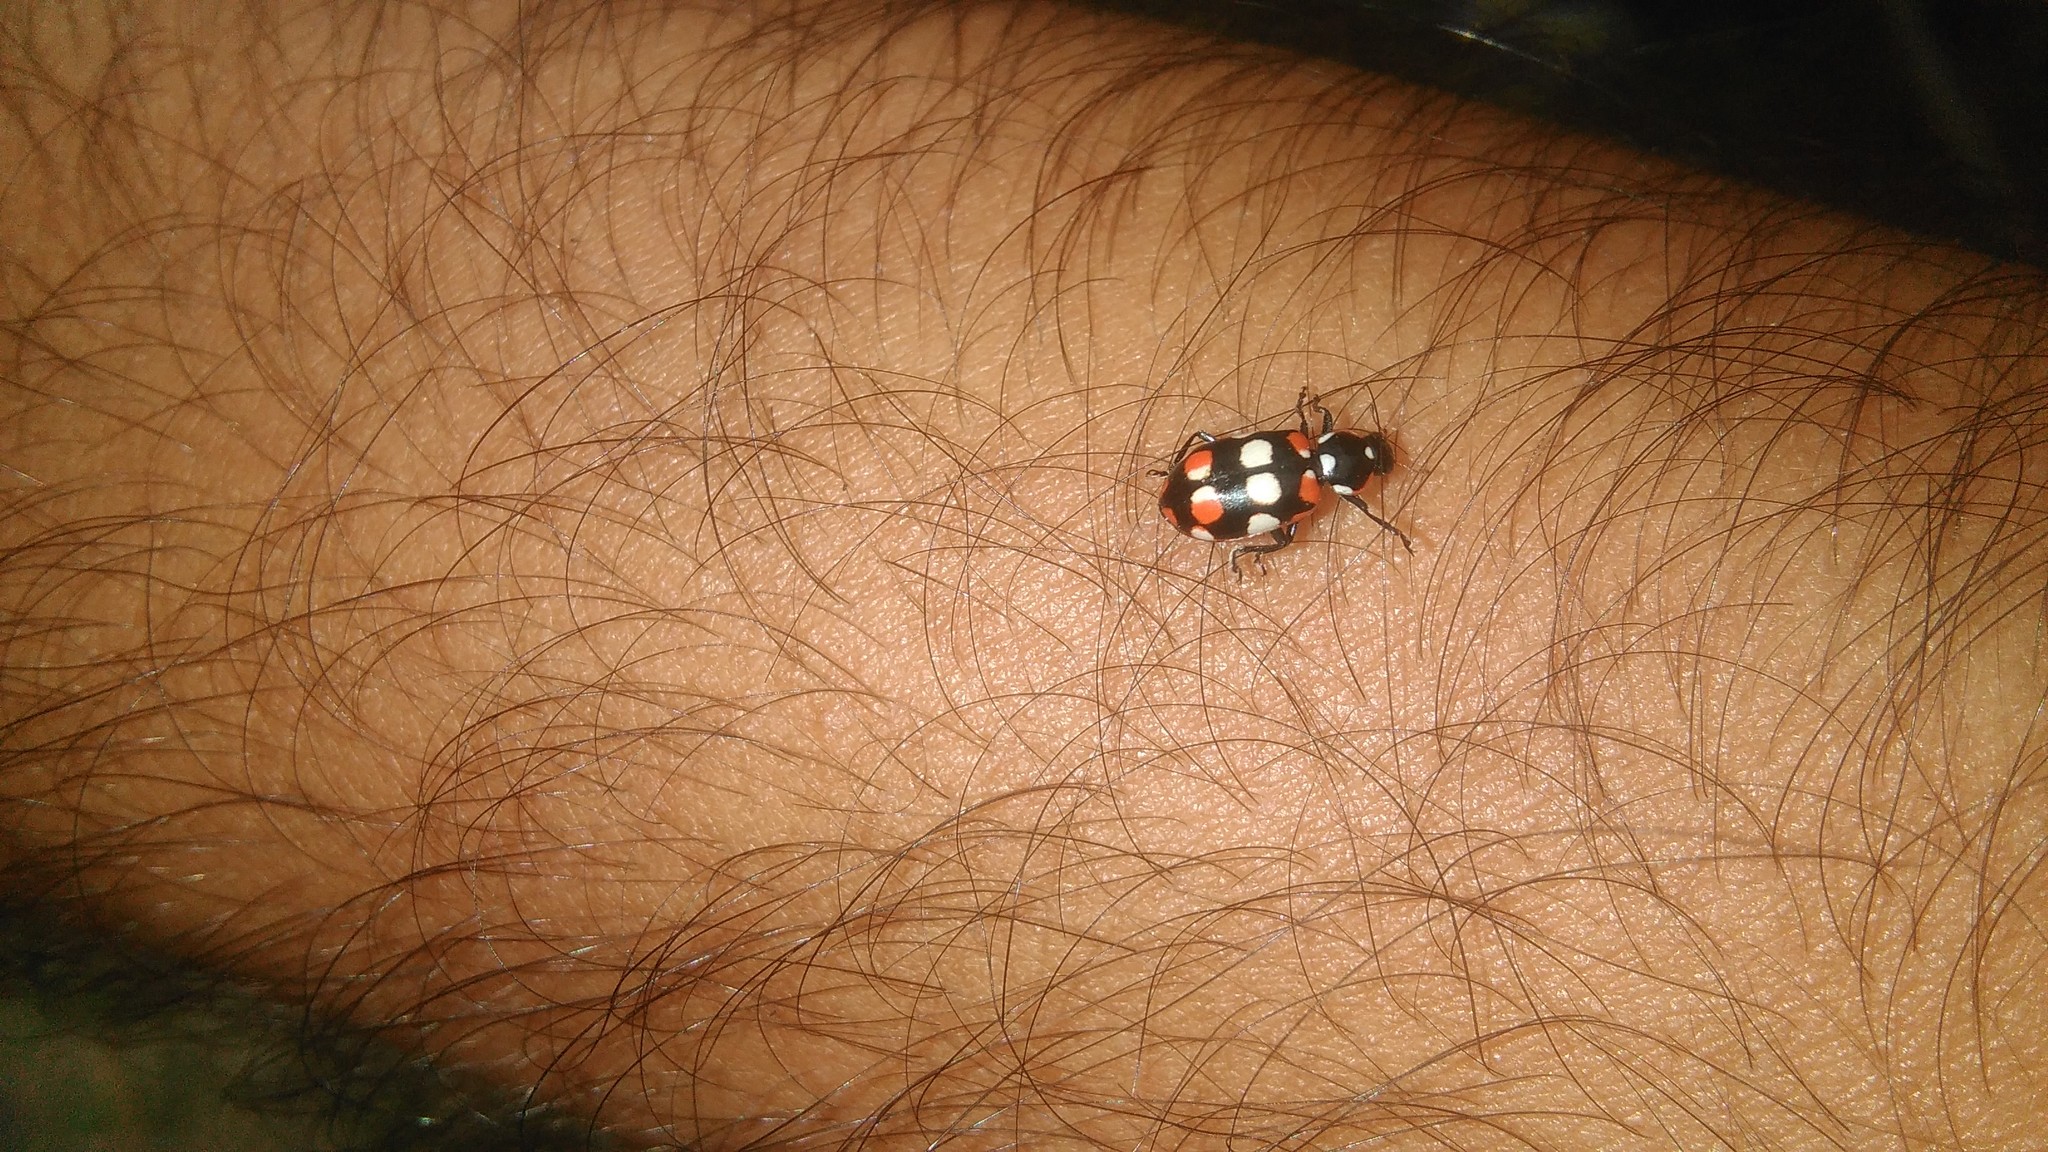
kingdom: Animalia
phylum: Arthropoda
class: Insecta
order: Coleoptera
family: Coccinellidae
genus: Eriopis
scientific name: Eriopis connexa
